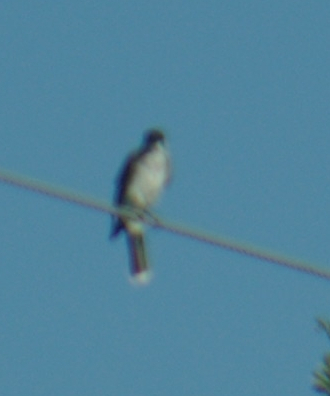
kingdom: Animalia
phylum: Chordata
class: Aves
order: Passeriformes
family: Tyrannidae
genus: Tyrannus
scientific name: Tyrannus tyrannus
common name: Eastern kingbird
